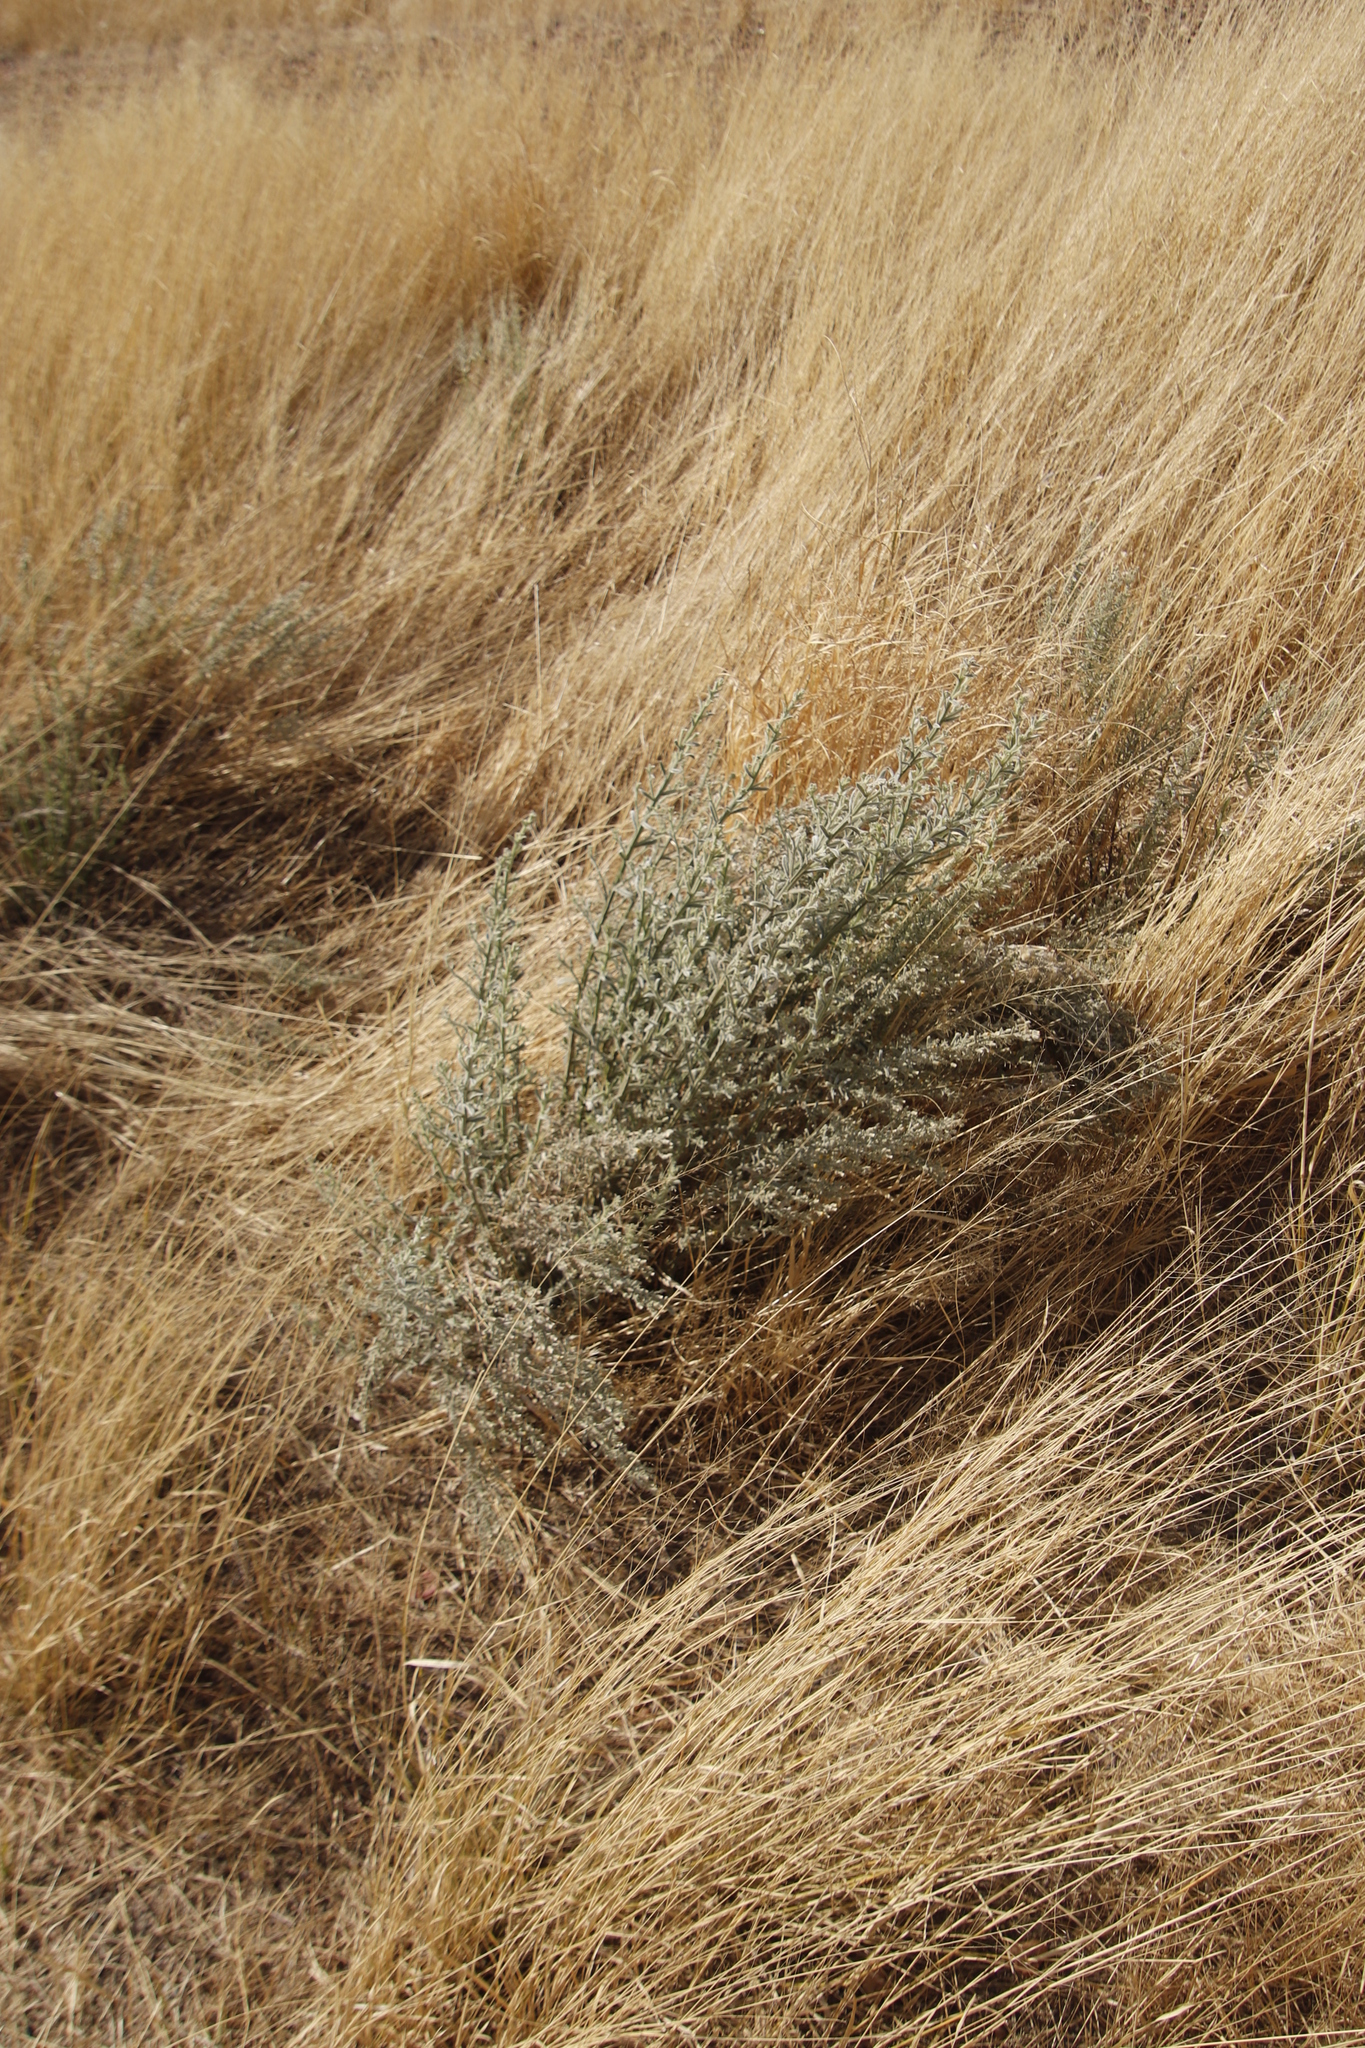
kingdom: Plantae
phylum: Tracheophyta
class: Magnoliopsida
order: Asterales
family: Asteraceae
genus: Galgera
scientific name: Galgera decurrens
